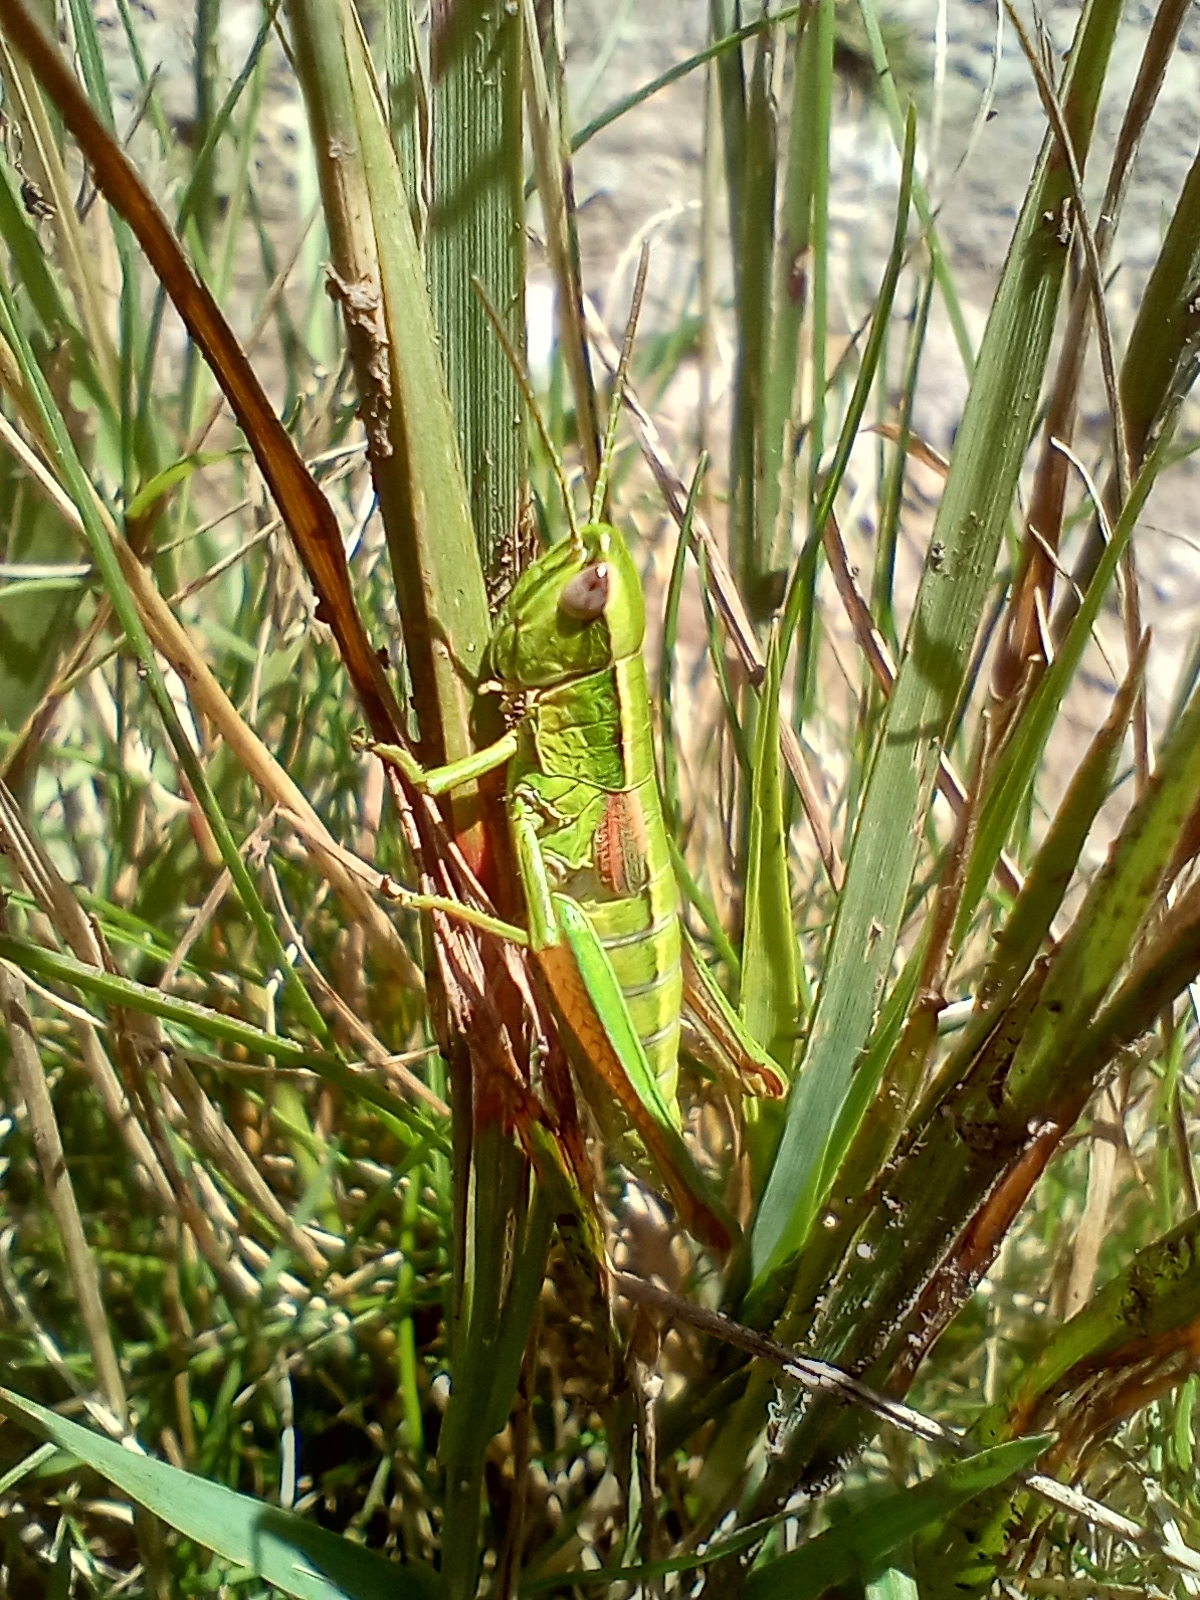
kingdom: Animalia
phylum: Arthropoda
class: Insecta
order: Orthoptera
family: Acrididae
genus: Euthystira
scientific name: Euthystira brachyptera
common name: Small gold grasshopper
